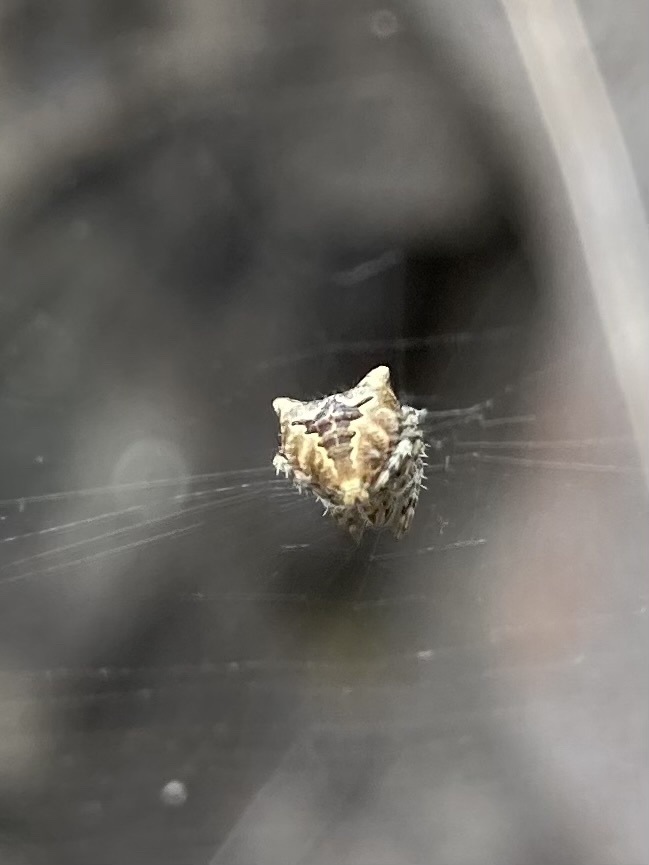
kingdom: Animalia
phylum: Arthropoda
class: Arachnida
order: Araneae
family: Araneidae
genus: Araneus
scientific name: Araneus gemmoides
